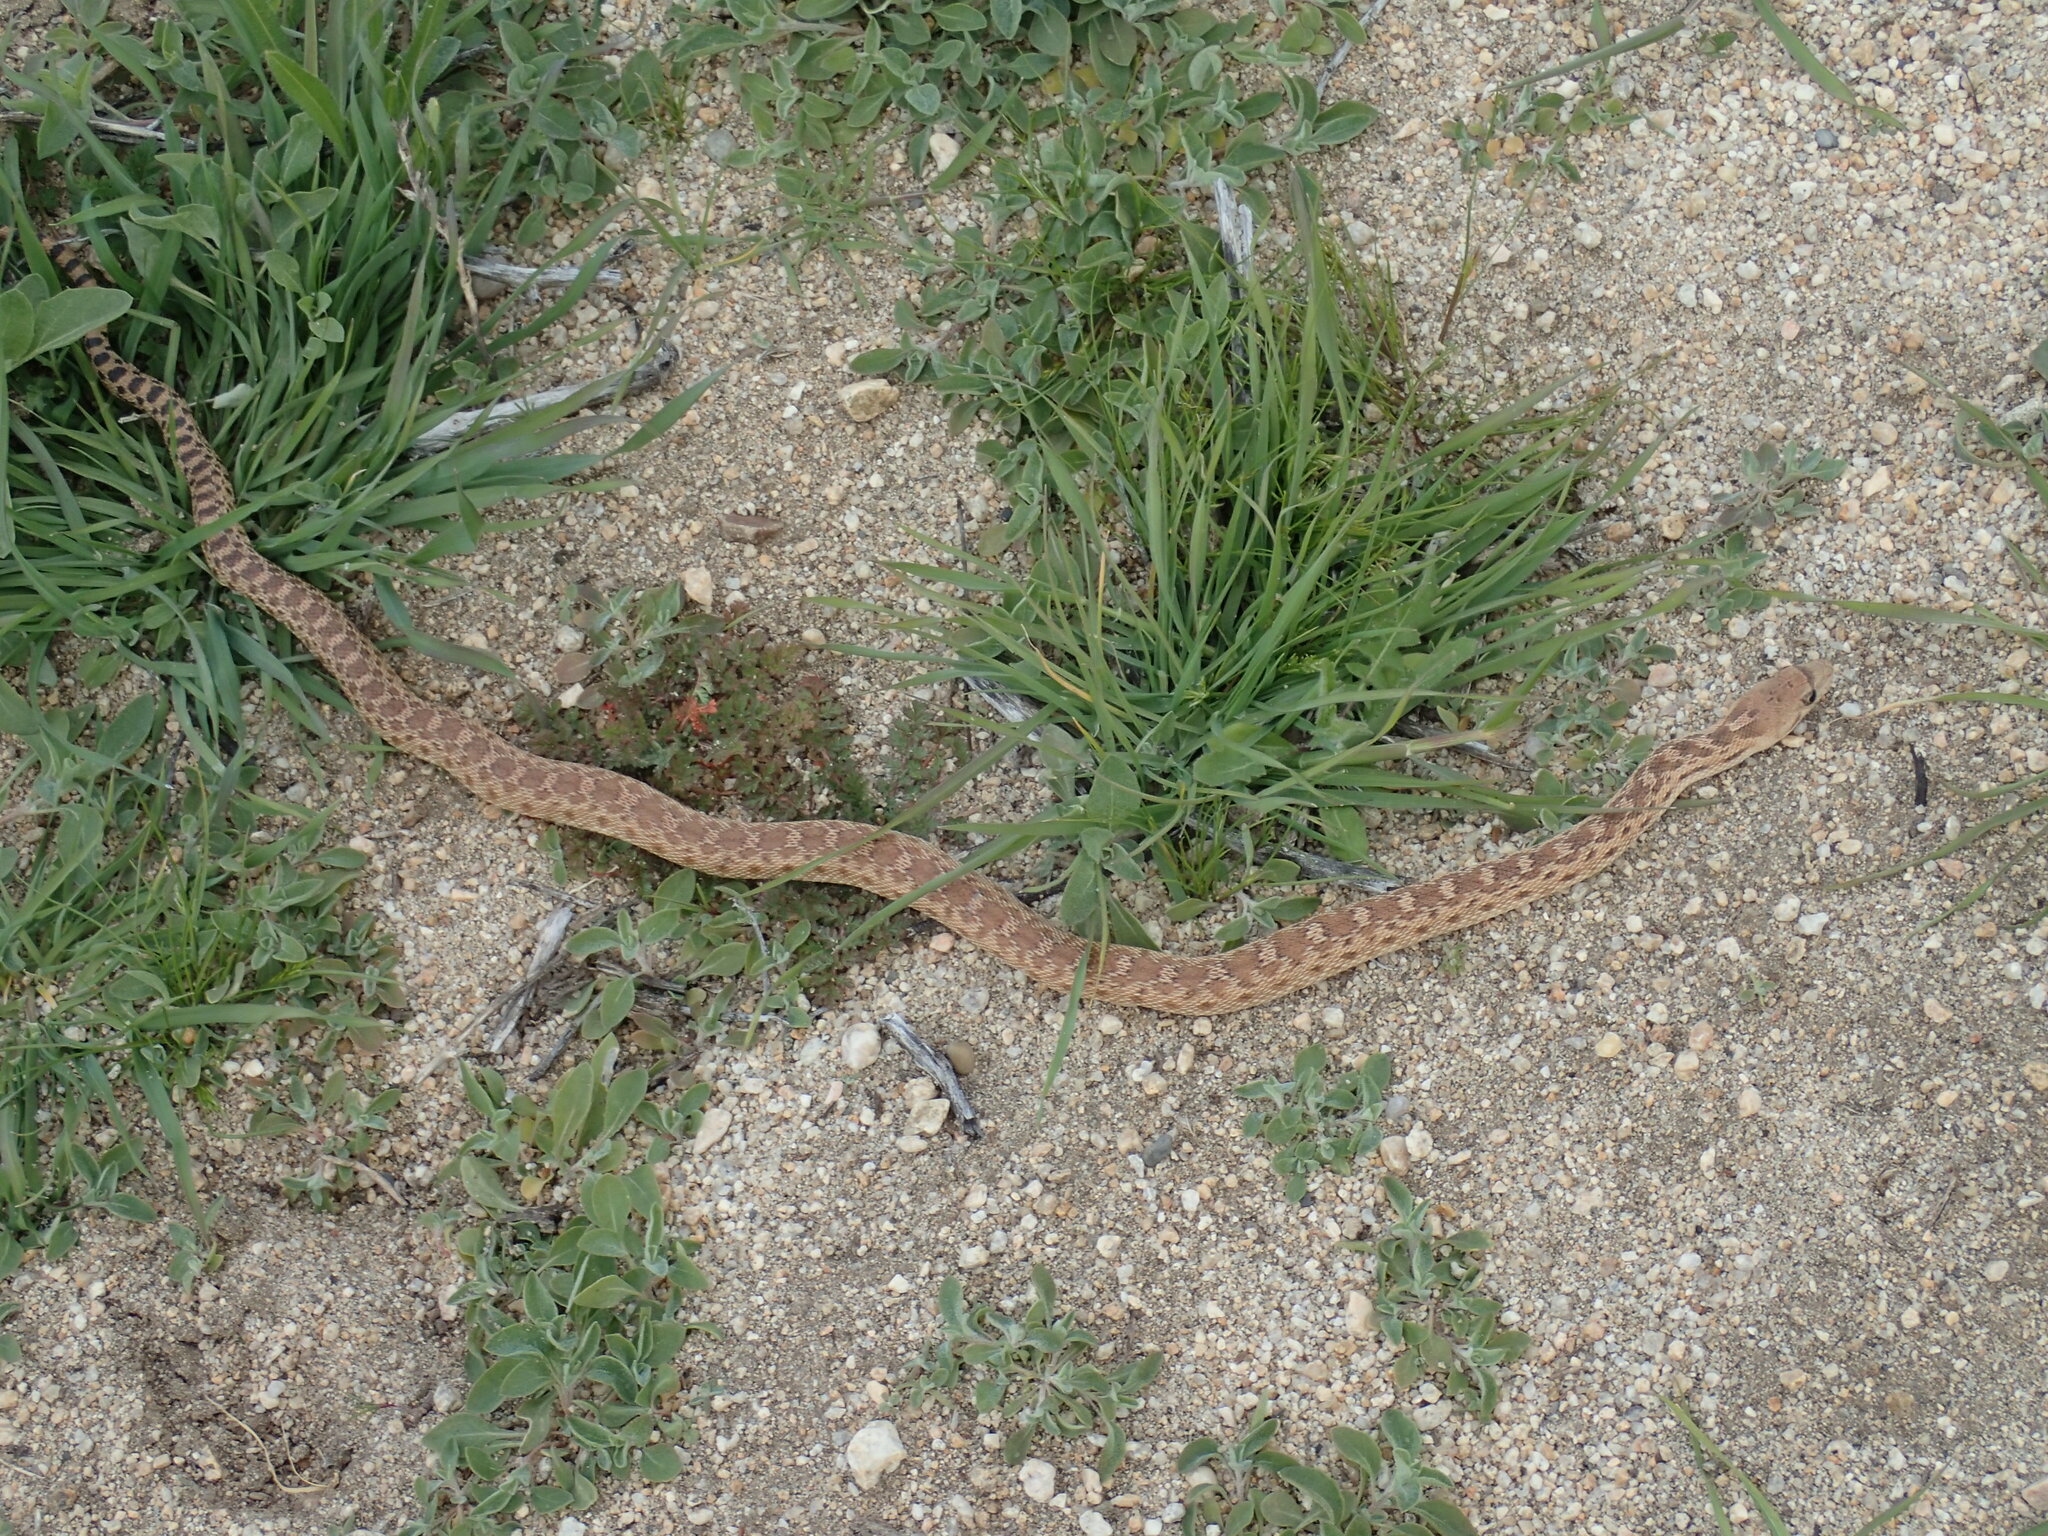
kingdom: Animalia
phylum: Chordata
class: Squamata
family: Colubridae
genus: Pituophis
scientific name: Pituophis catenifer
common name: Gopher snake
